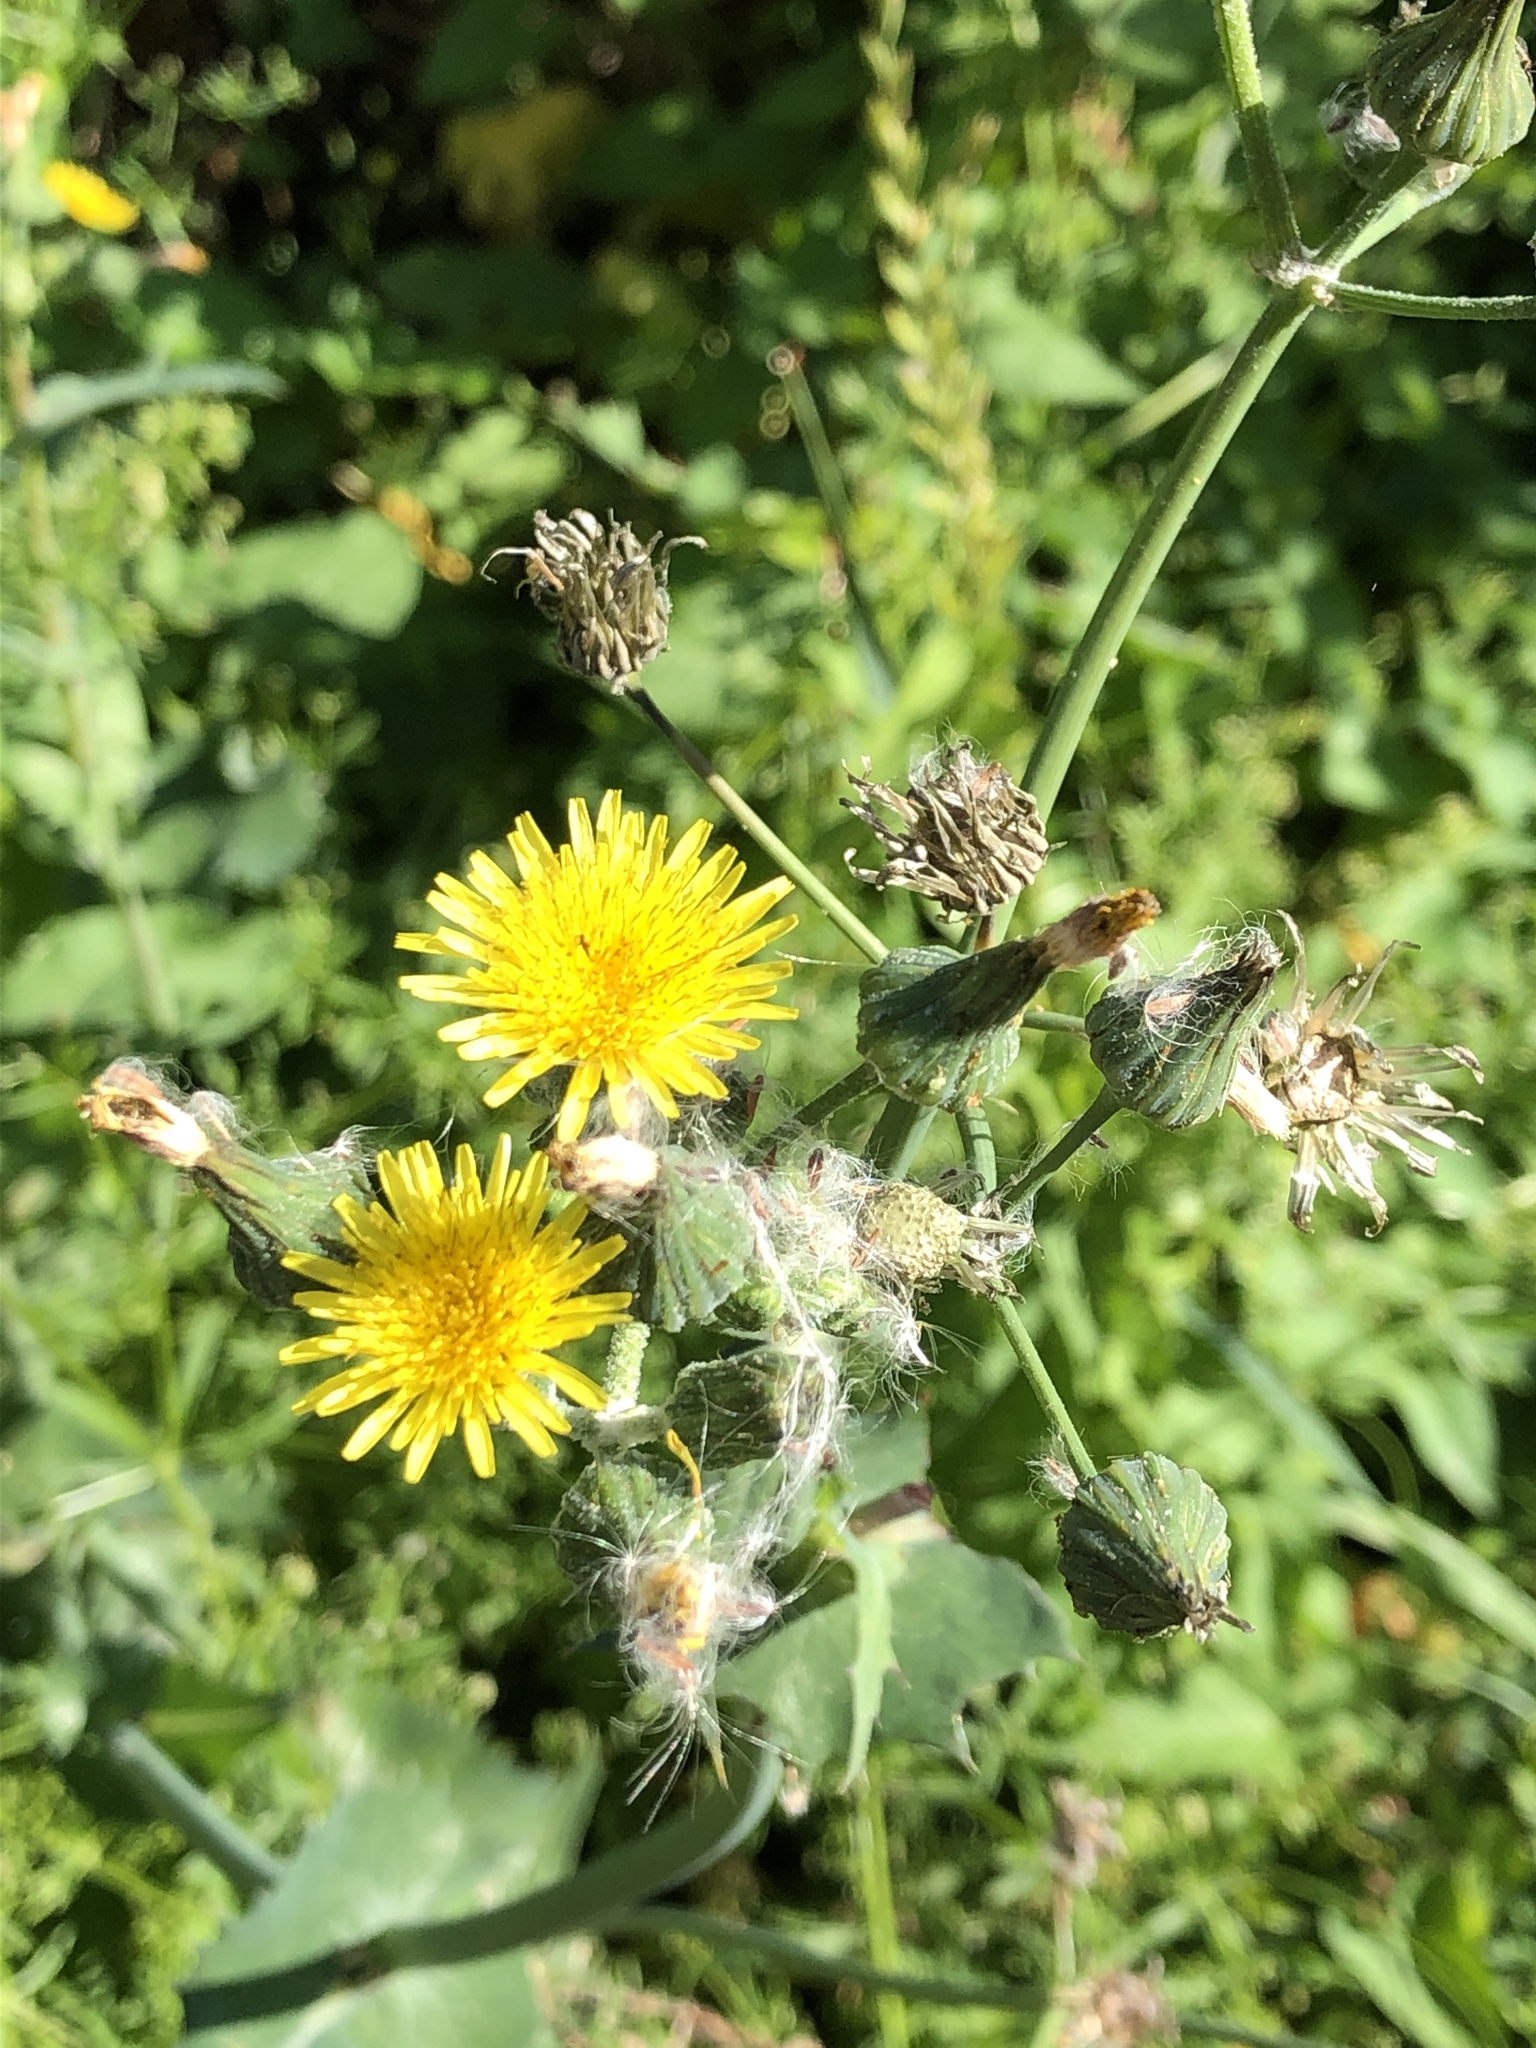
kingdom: Plantae
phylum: Tracheophyta
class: Magnoliopsida
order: Asterales
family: Asteraceae
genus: Sonchus
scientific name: Sonchus oleraceus
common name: Common sowthistle
